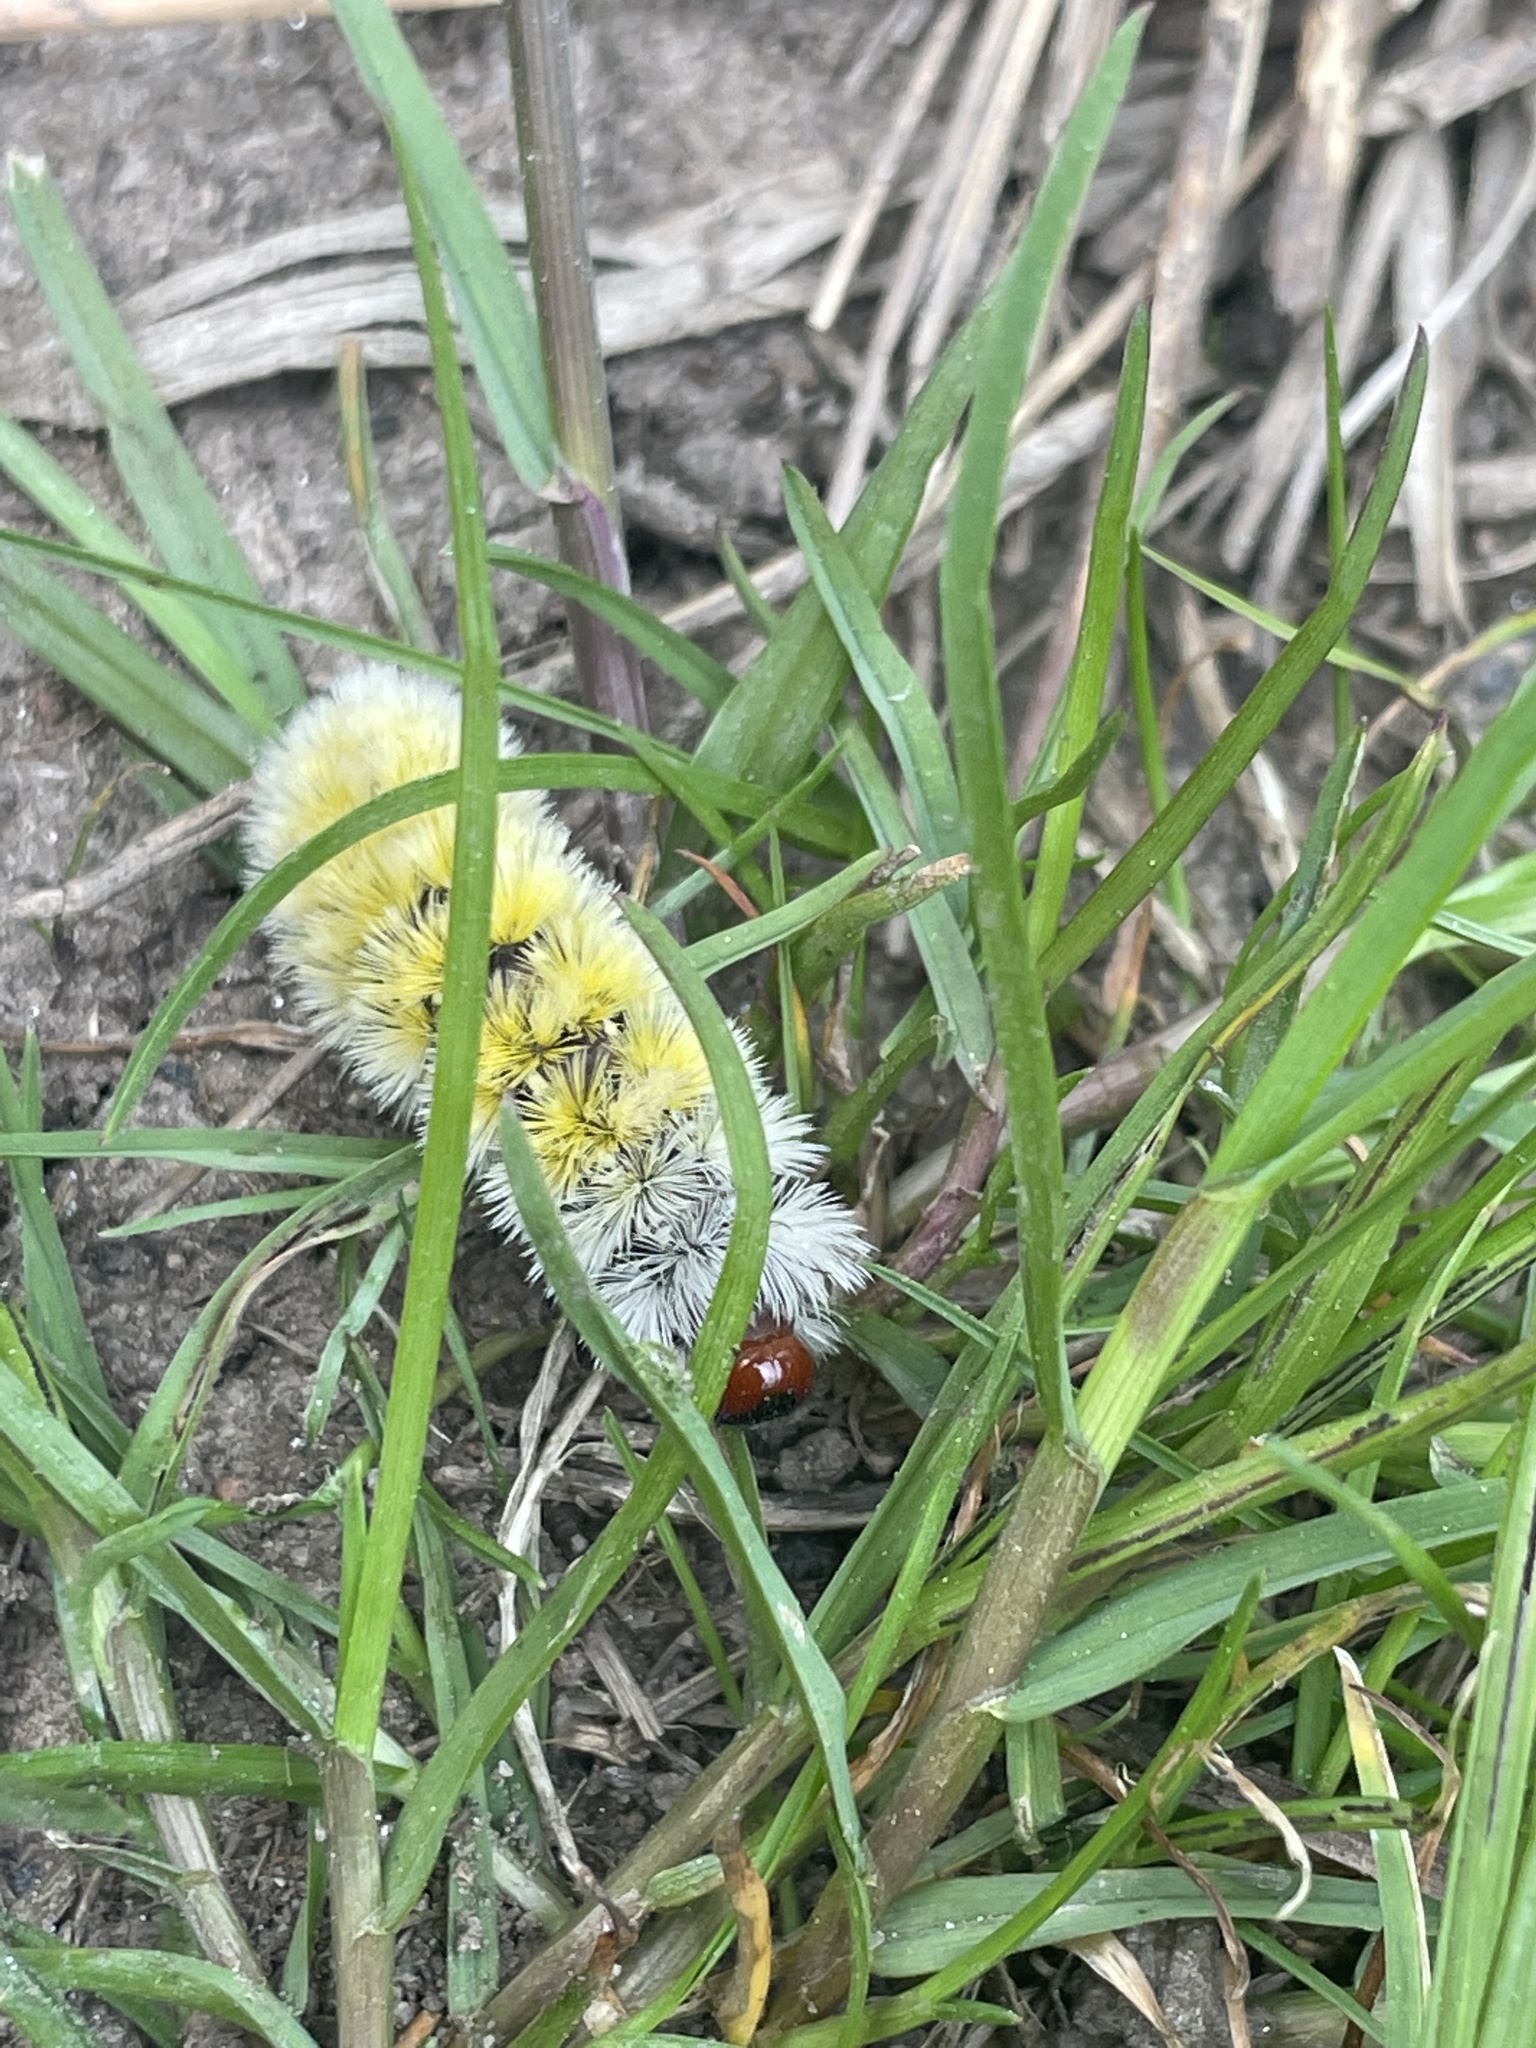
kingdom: Animalia
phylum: Arthropoda
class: Insecta
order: Lepidoptera
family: Erebidae
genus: Ctenucha
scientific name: Ctenucha virginica
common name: Virginia ctenucha moth
